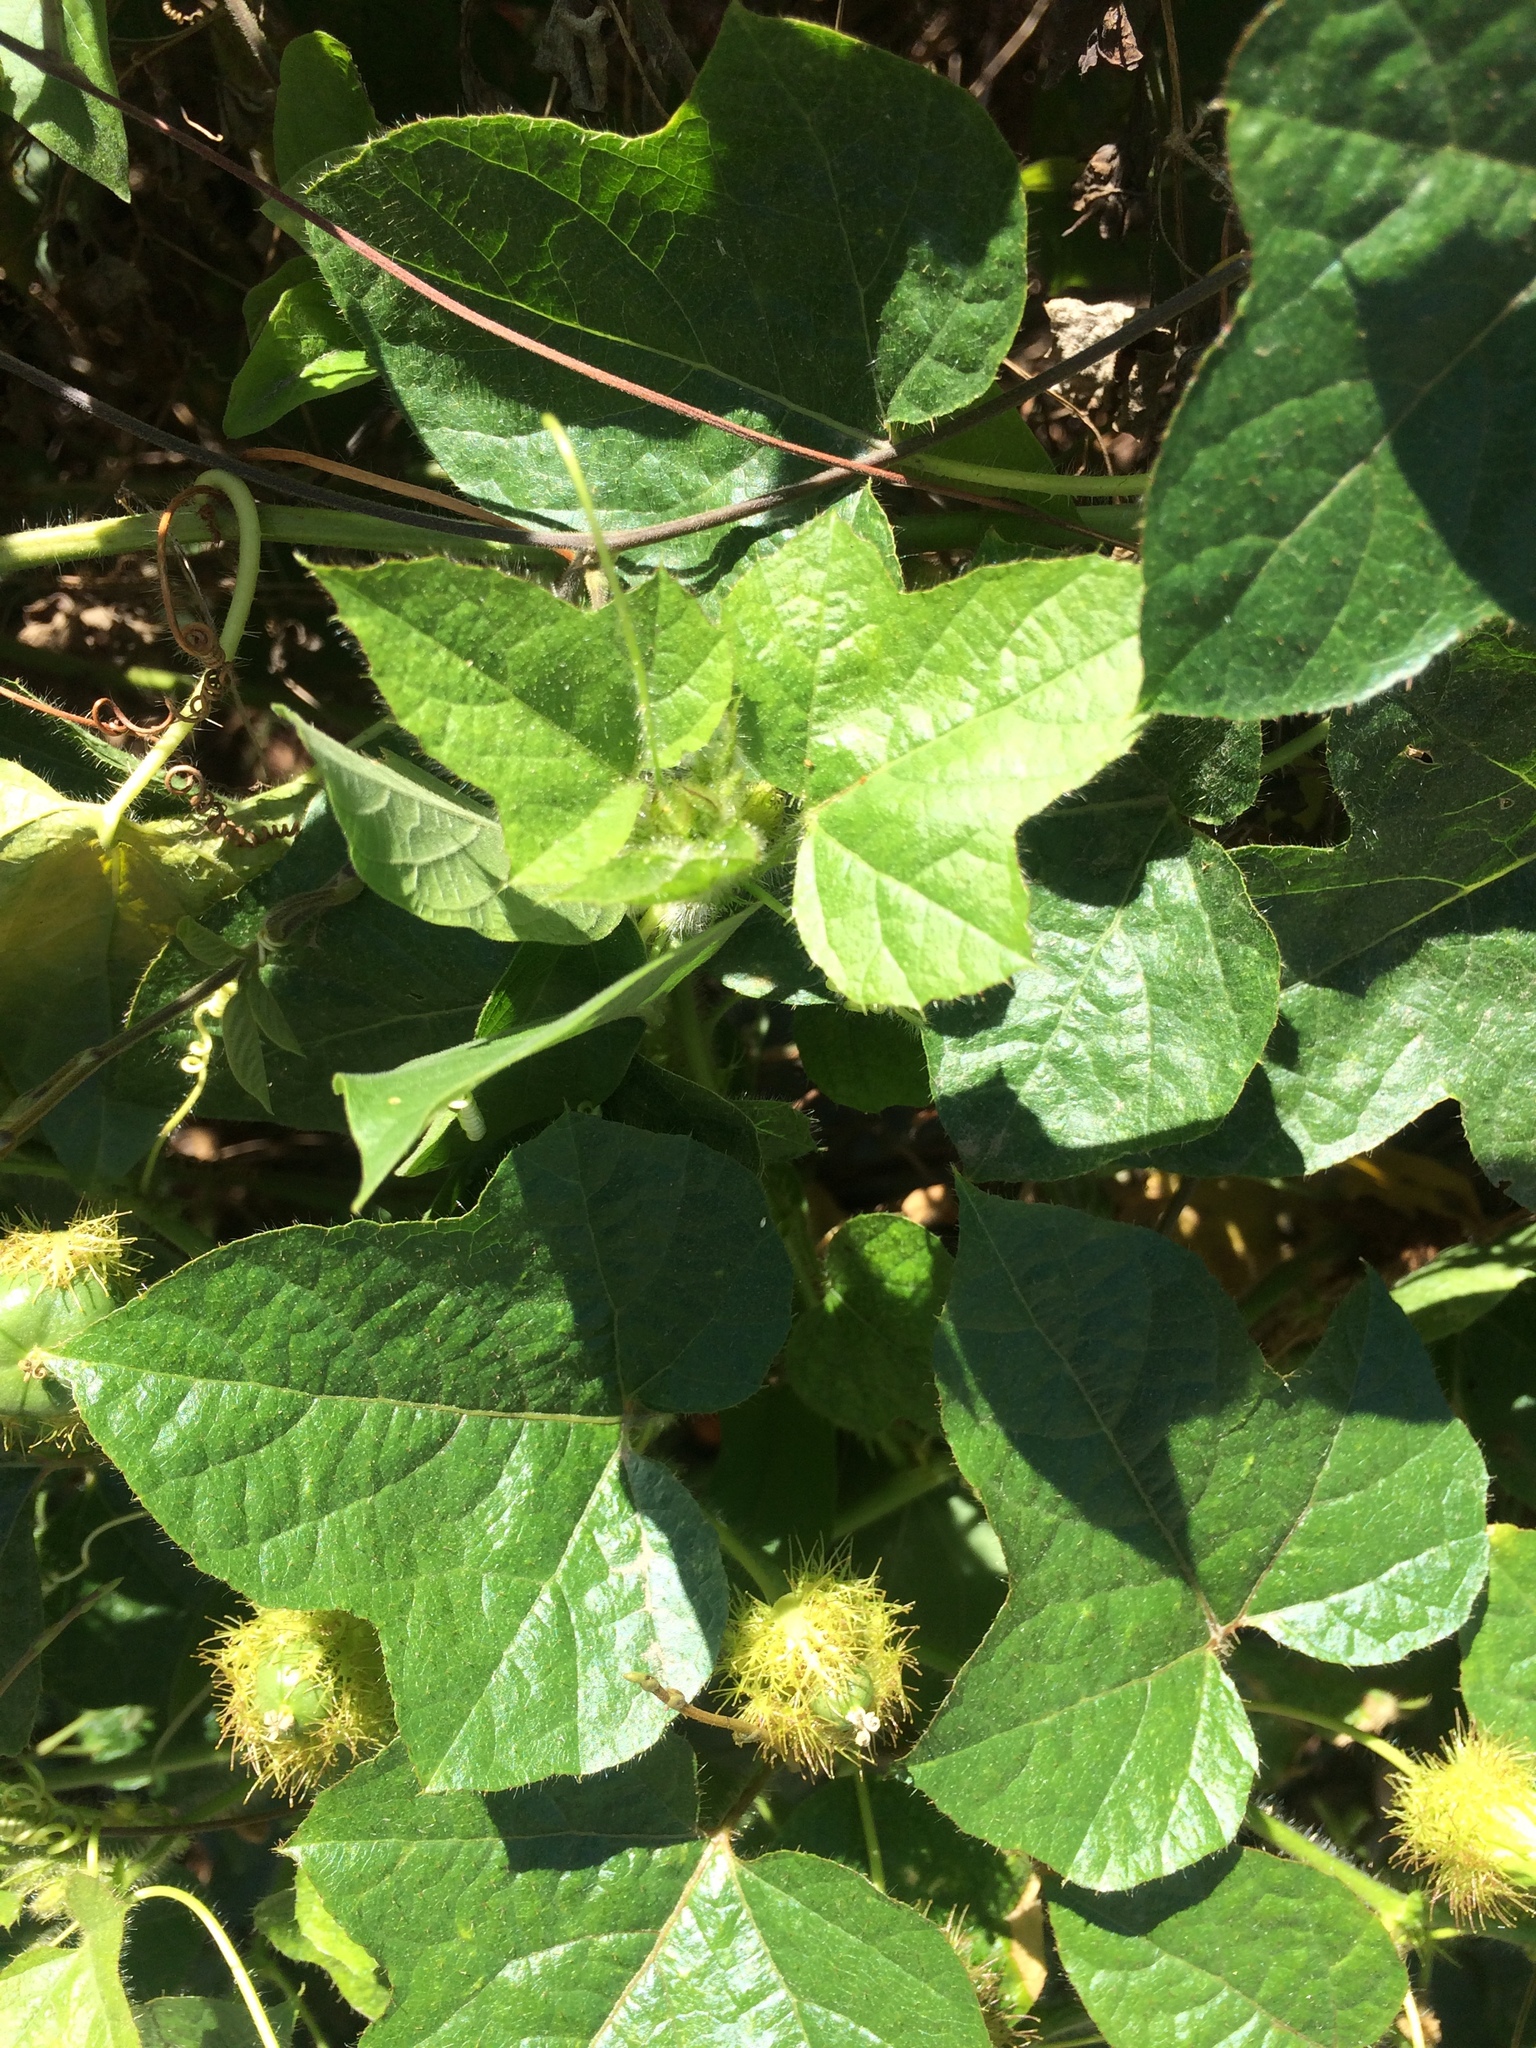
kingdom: Plantae
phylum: Tracheophyta
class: Magnoliopsida
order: Malpighiales
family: Passifloraceae
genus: Passiflora
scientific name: Passiflora foetida
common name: Fetid passionflower
